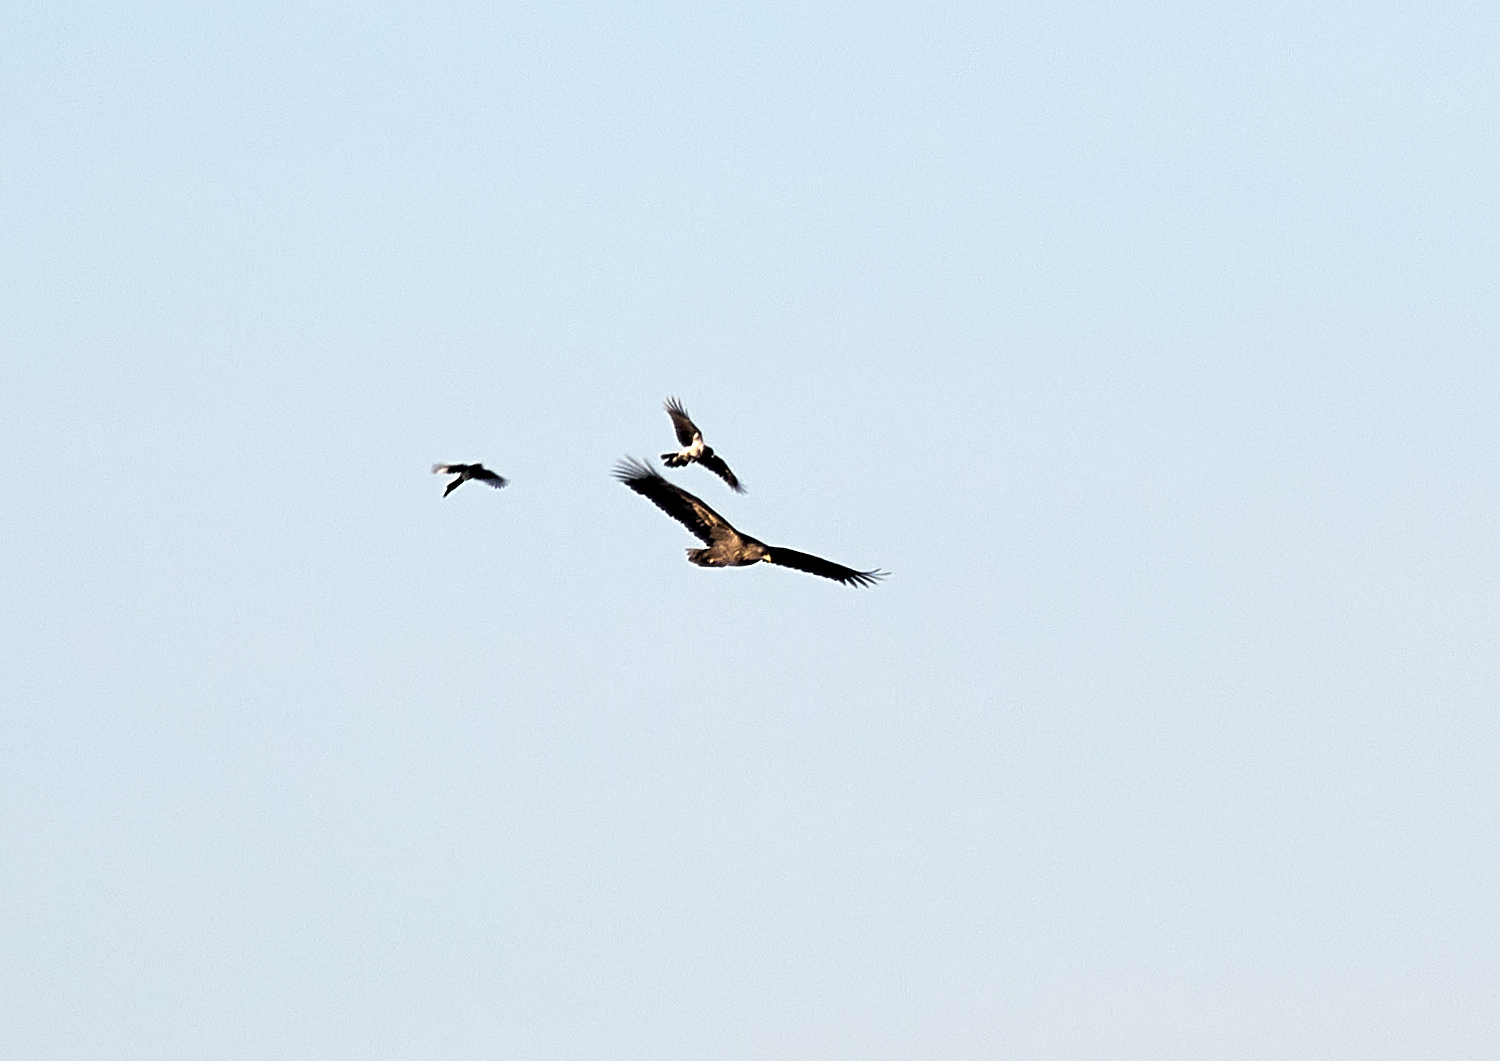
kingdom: Animalia
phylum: Chordata
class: Aves
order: Accipitriformes
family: Accipitridae
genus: Haliaeetus
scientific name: Haliaeetus albicilla
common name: White-tailed eagle
